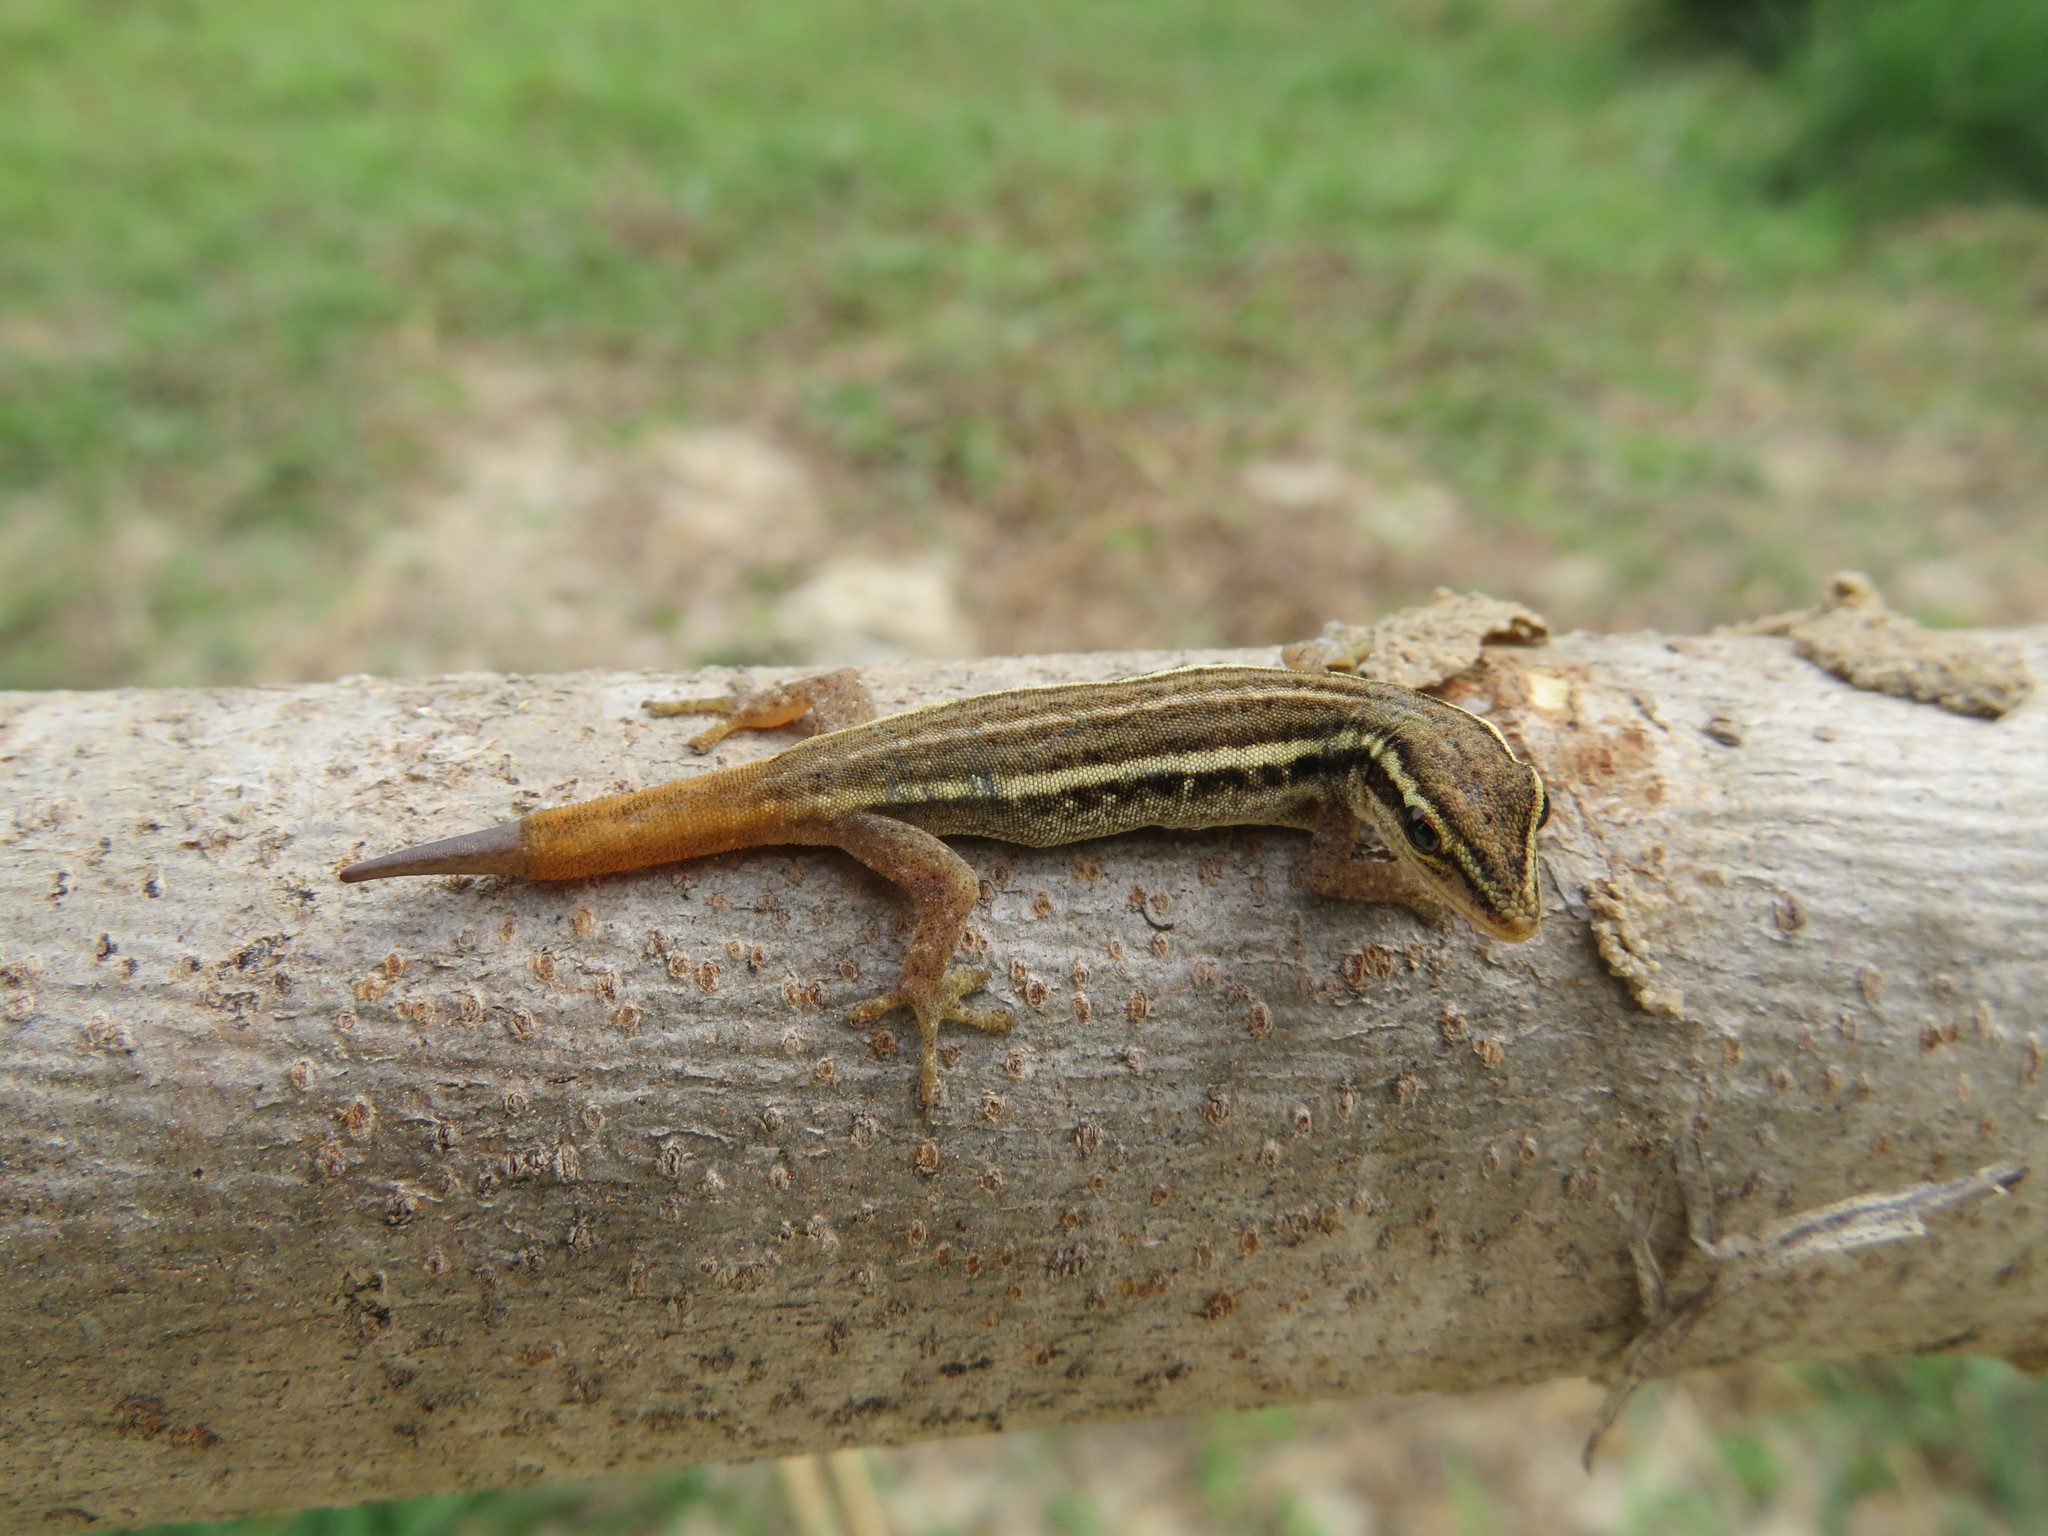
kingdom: Animalia
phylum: Chordata
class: Squamata
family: Gekkonidae
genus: Lygodactylus
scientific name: Lygodactylus grotei
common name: Grote’s dwarf gecko
